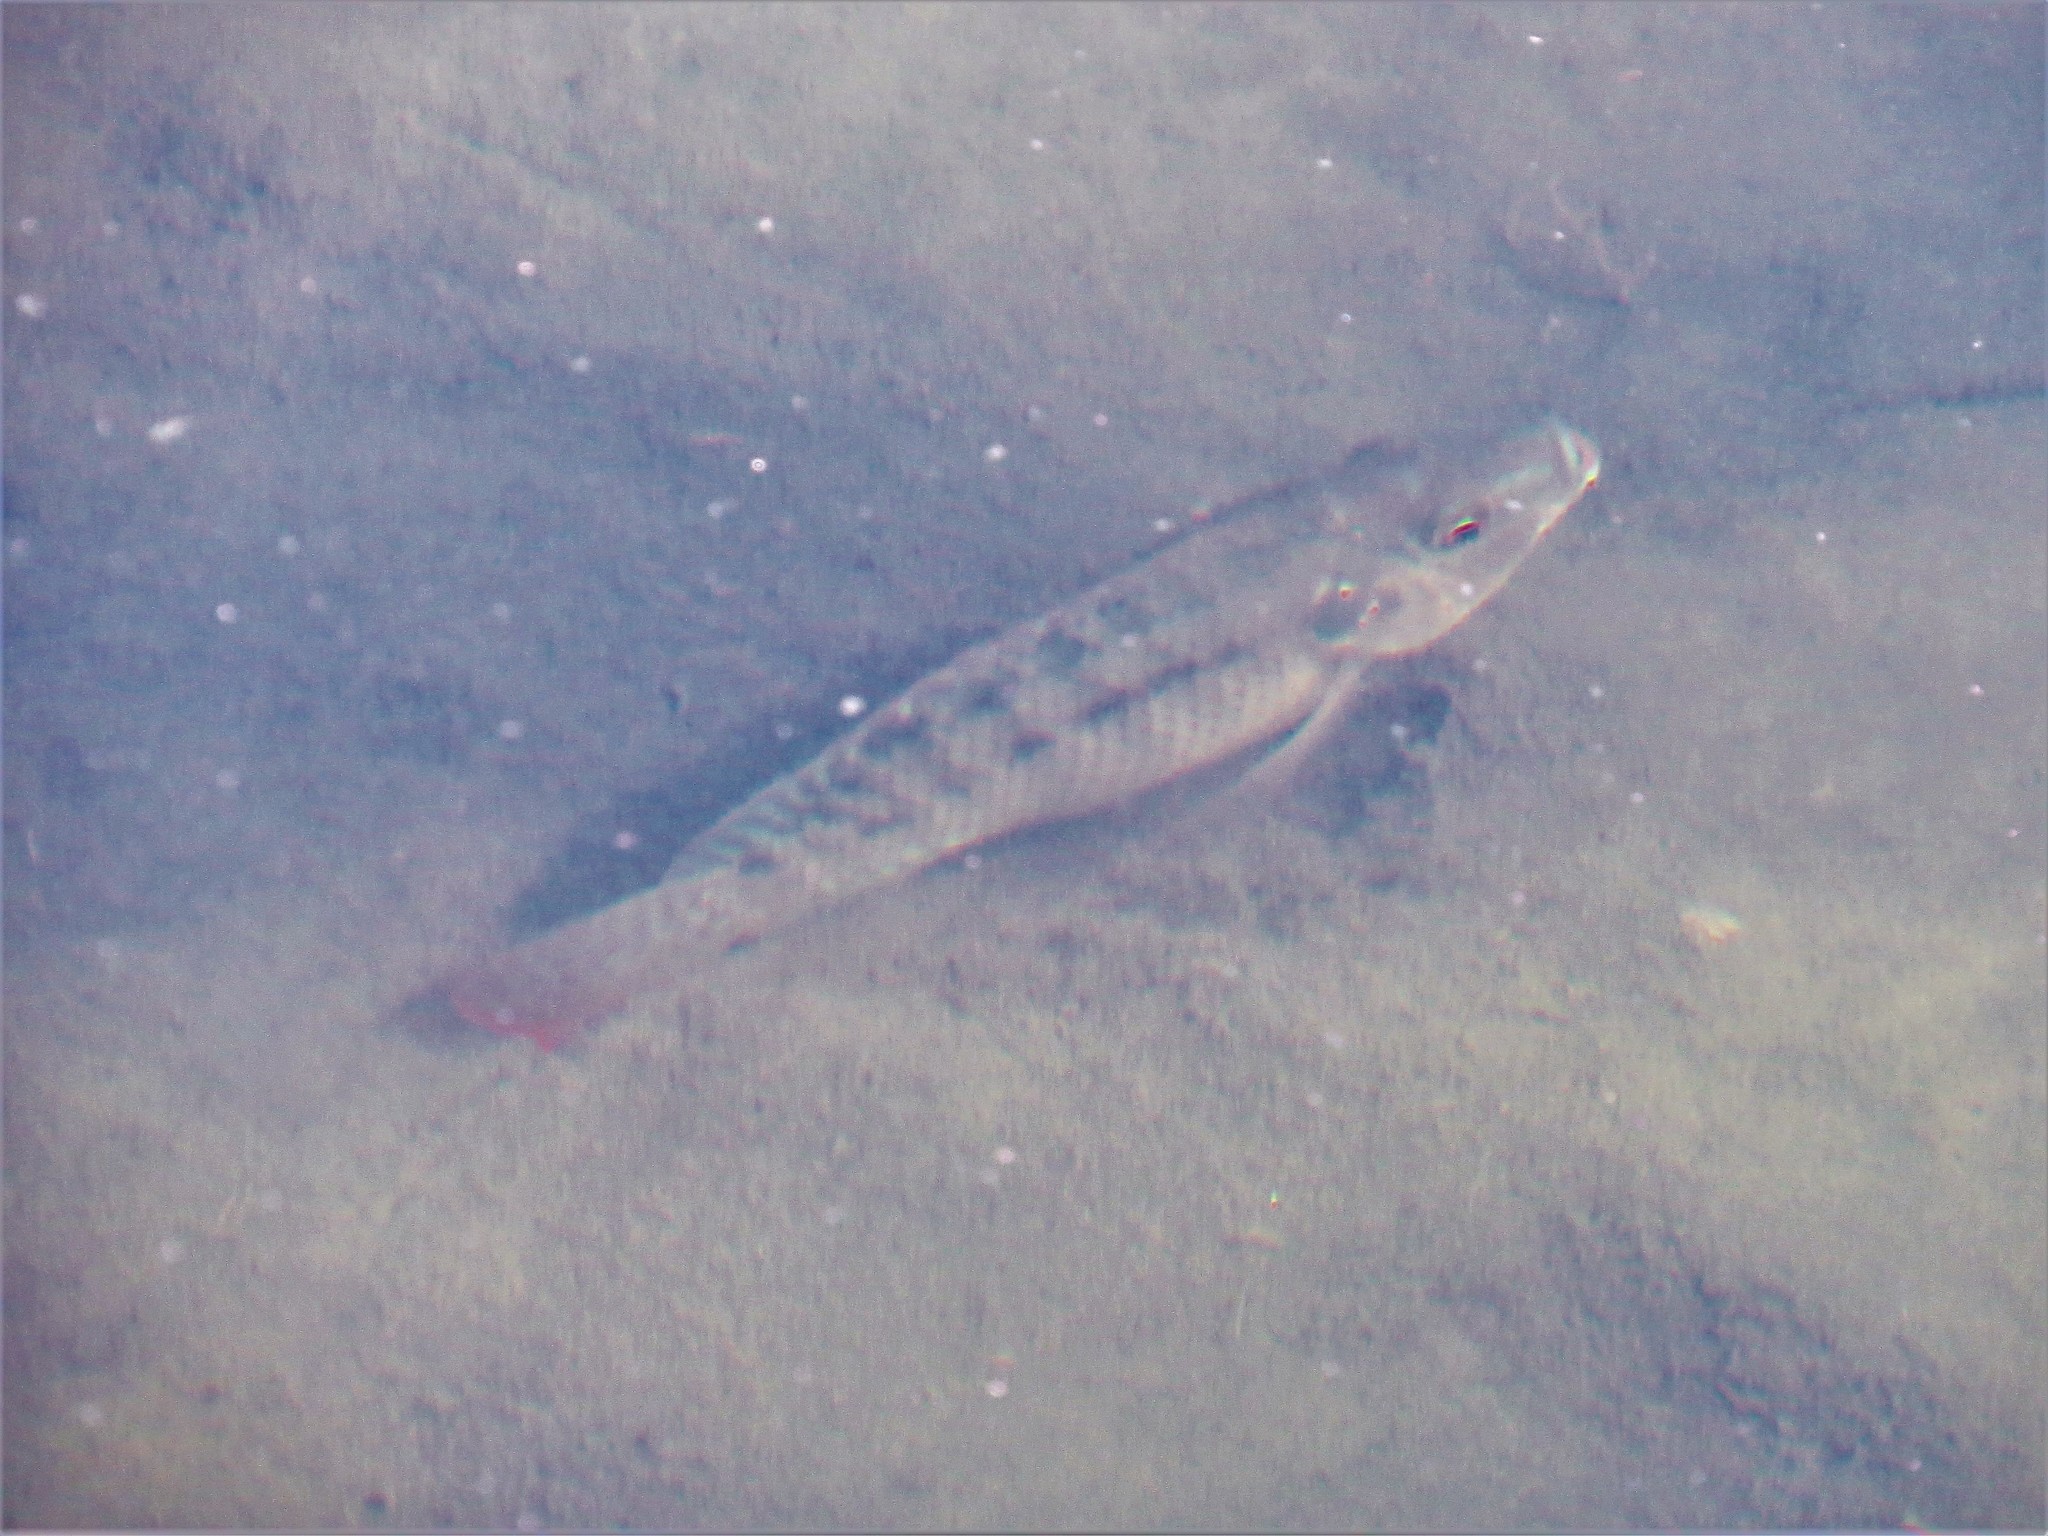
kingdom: Animalia
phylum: Chordata
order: Perciformes
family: Cichlidae
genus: Oreochromis
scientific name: Oreochromis niloticus
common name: Nile tilapia
